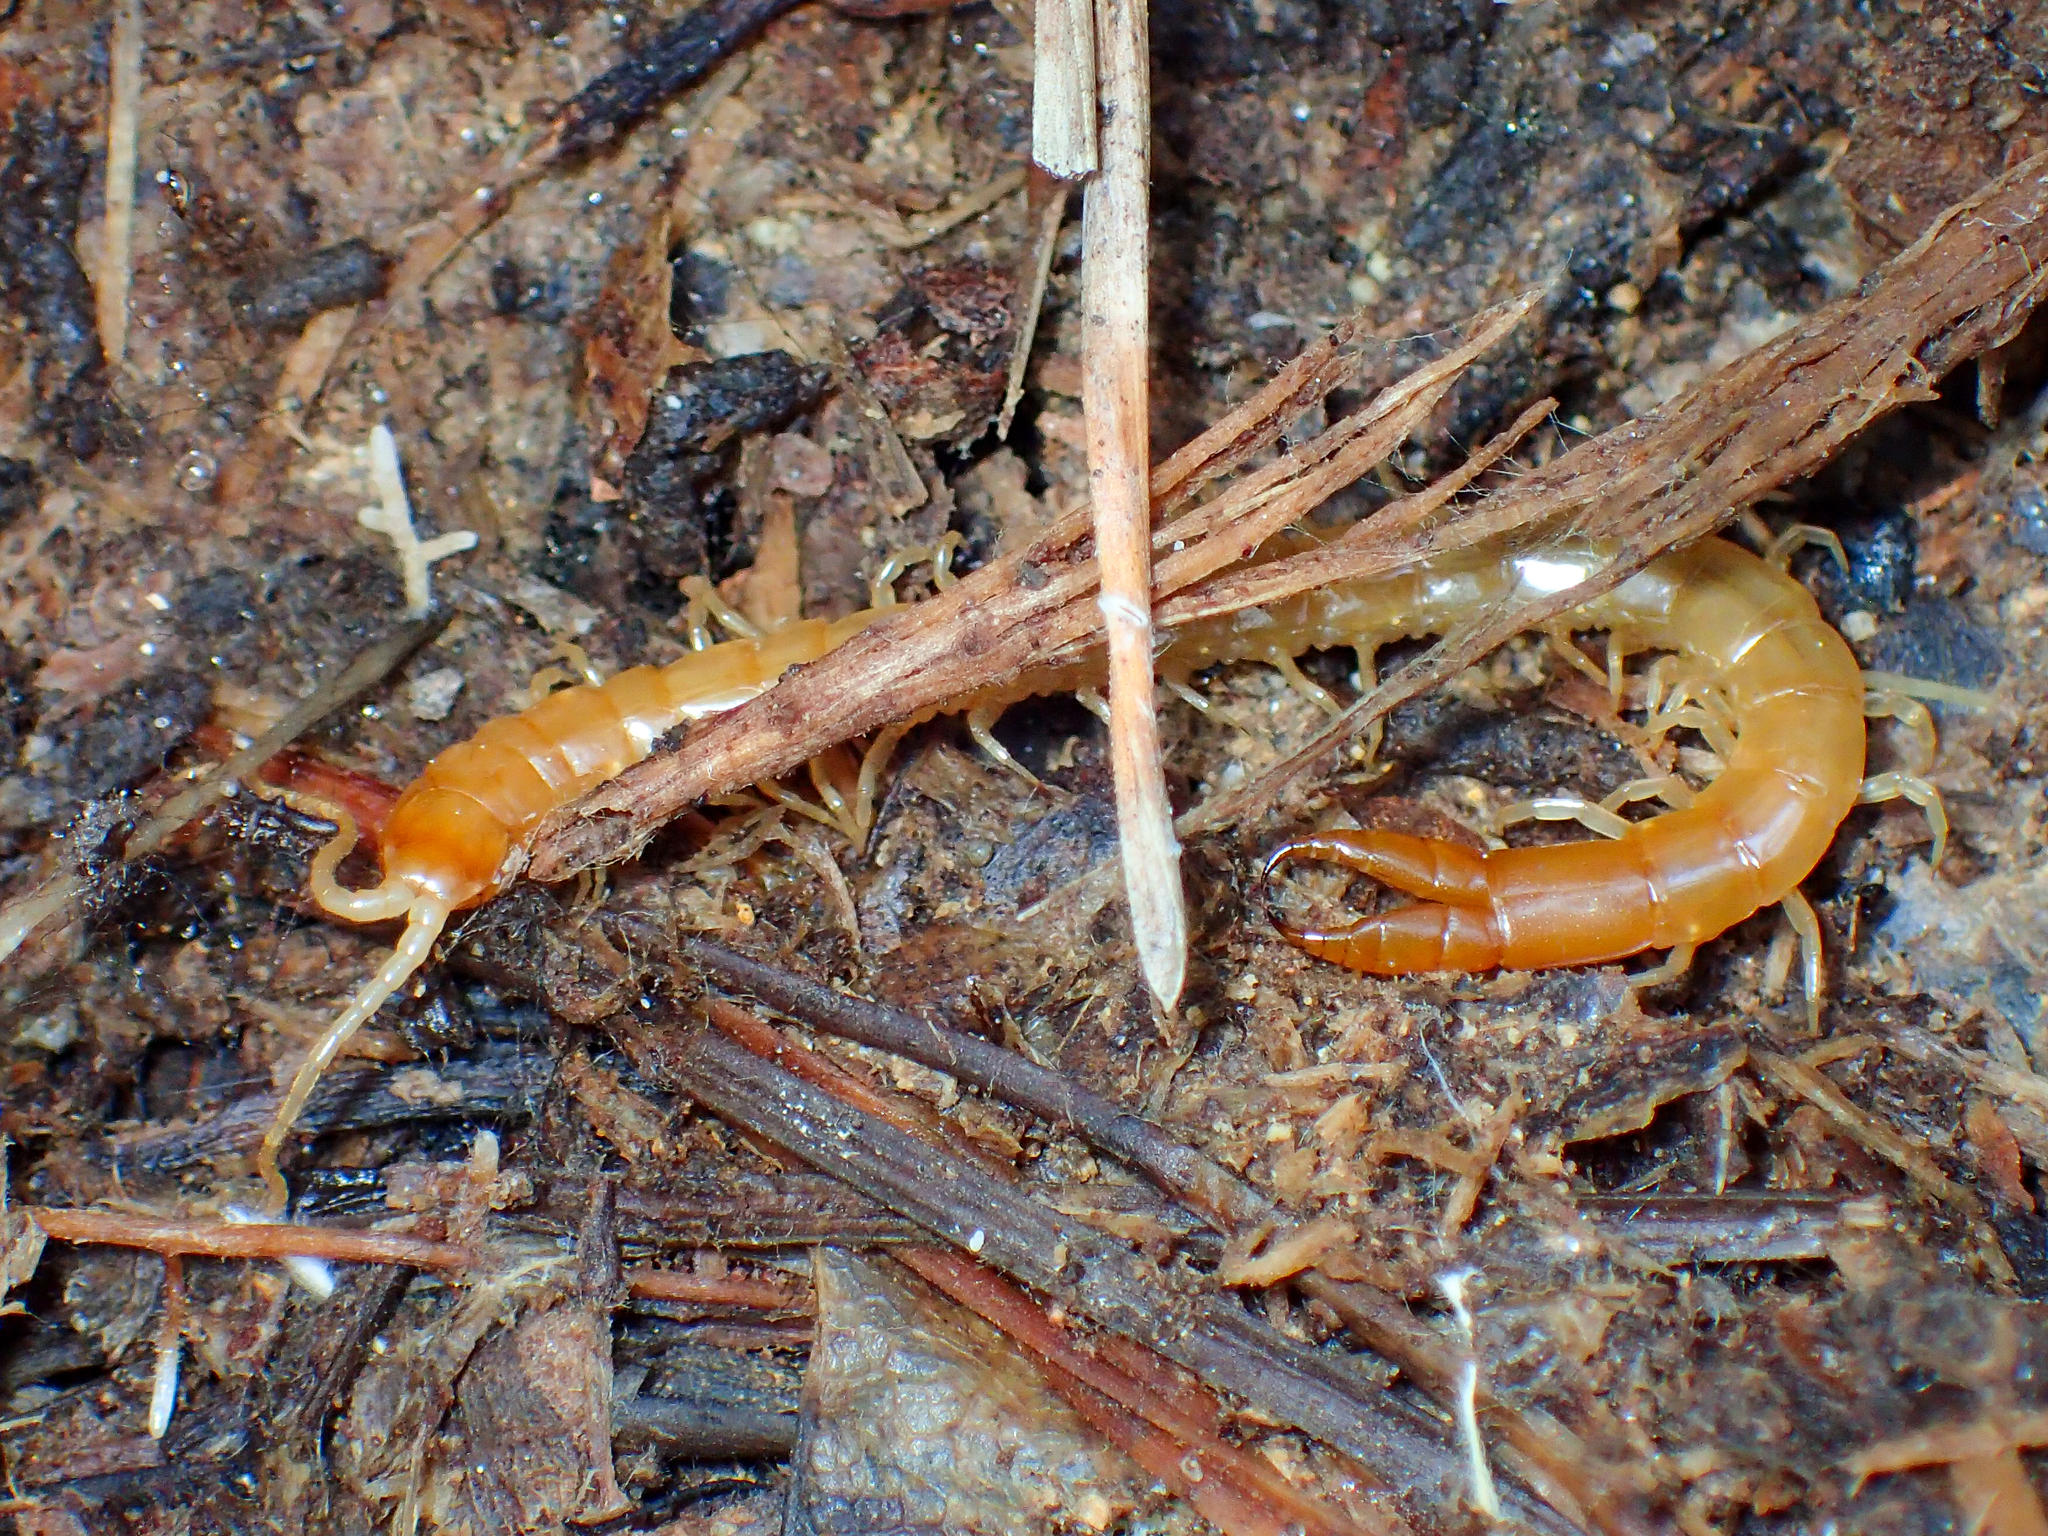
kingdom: Animalia
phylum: Arthropoda
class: Chilopoda
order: Scolopendromorpha
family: Cryptopidae
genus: Theatops
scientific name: Theatops posticus
